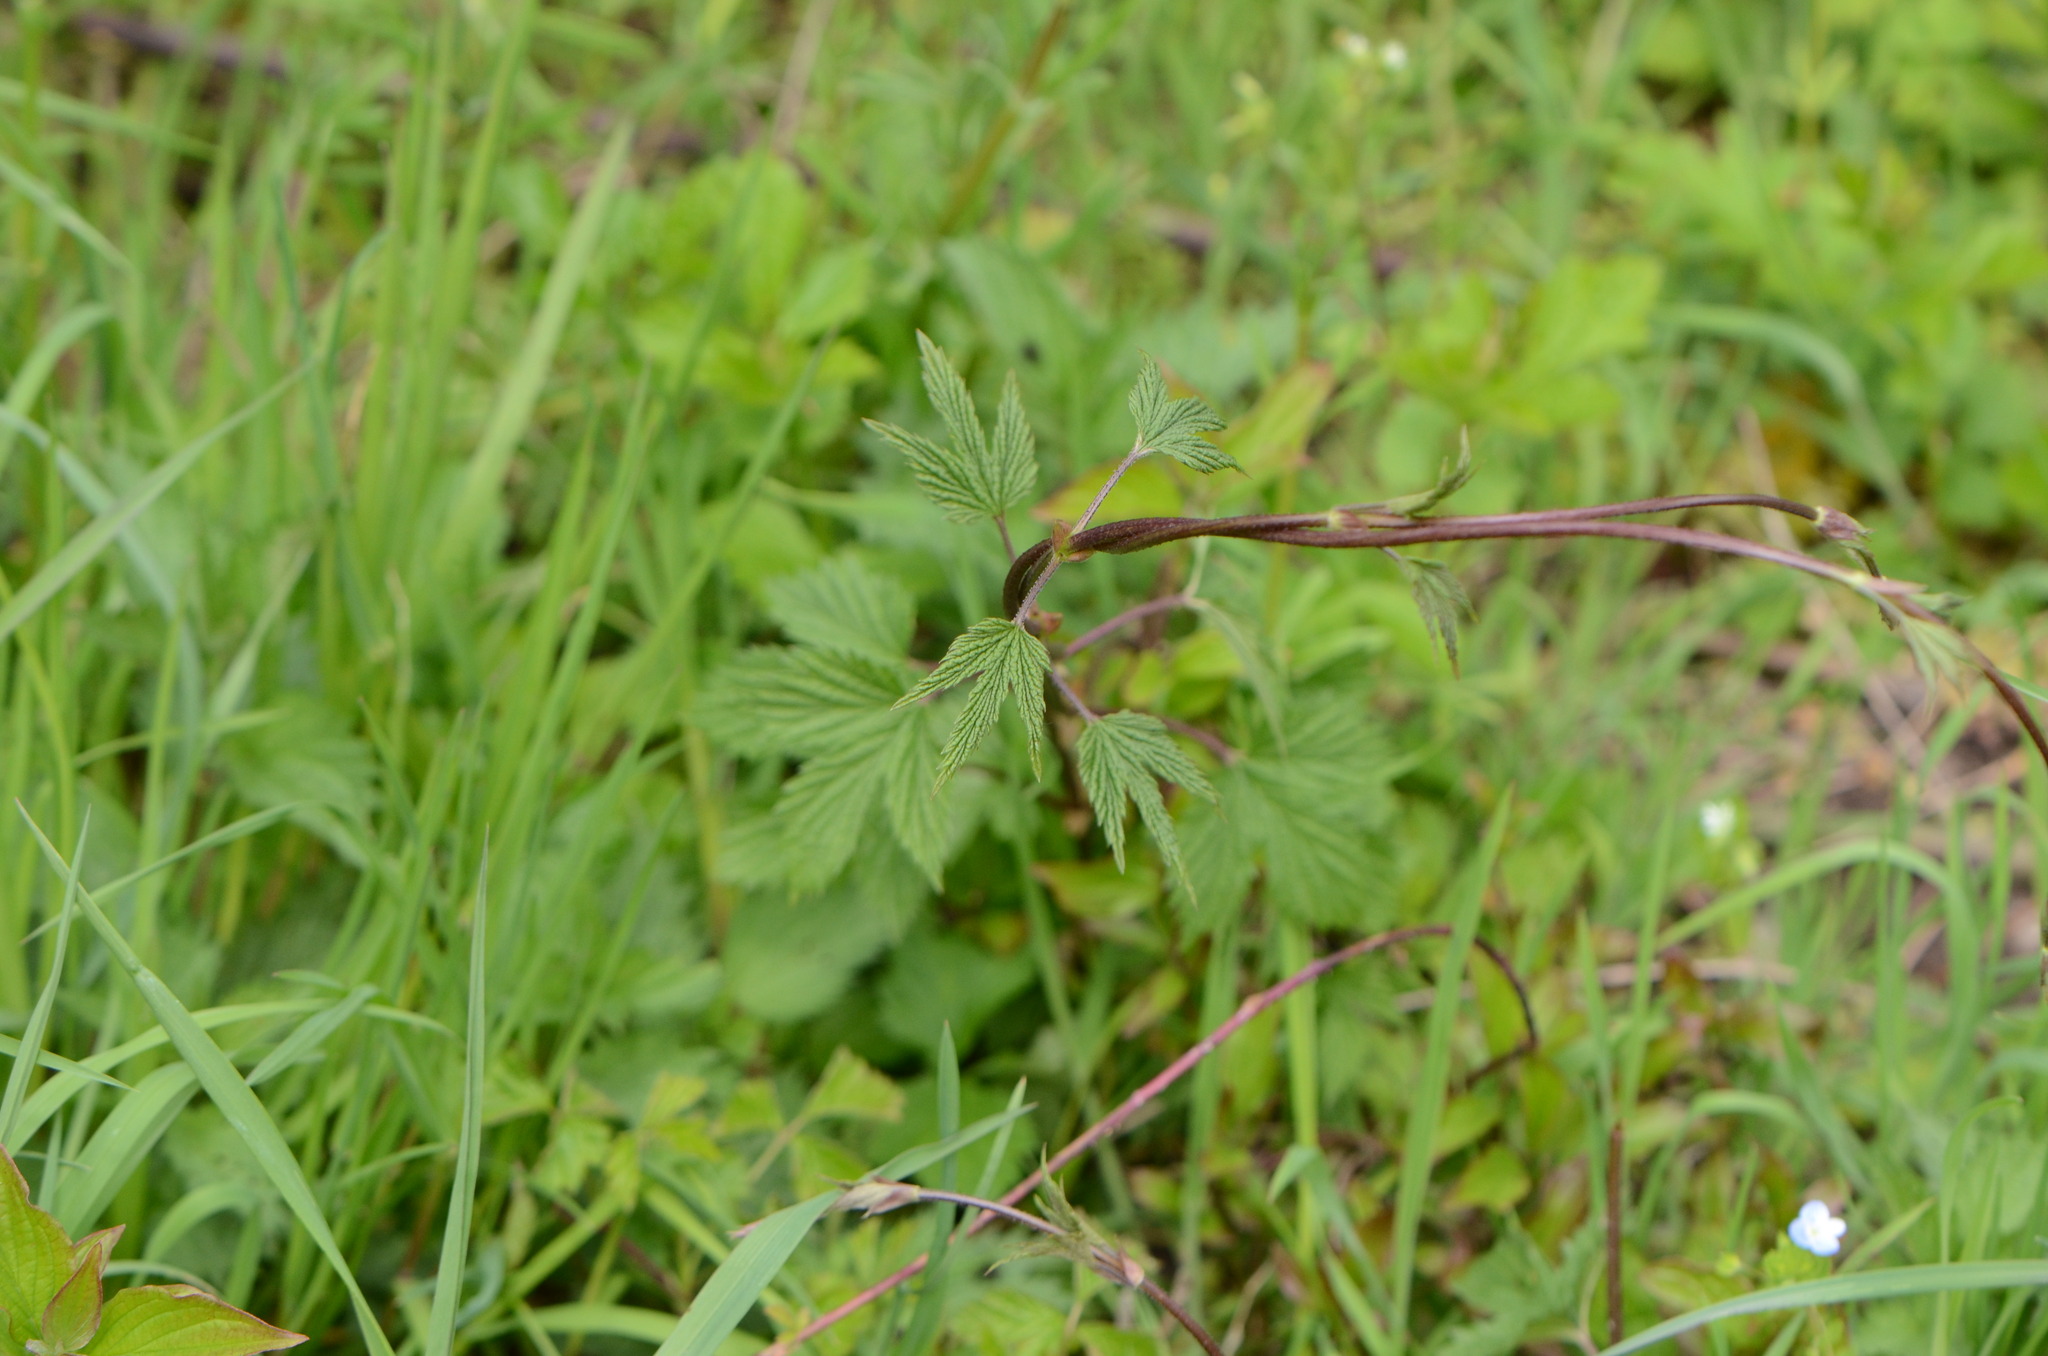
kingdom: Plantae
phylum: Tracheophyta
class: Magnoliopsida
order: Rosales
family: Cannabaceae
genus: Humulus
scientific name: Humulus lupulus
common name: Hop
